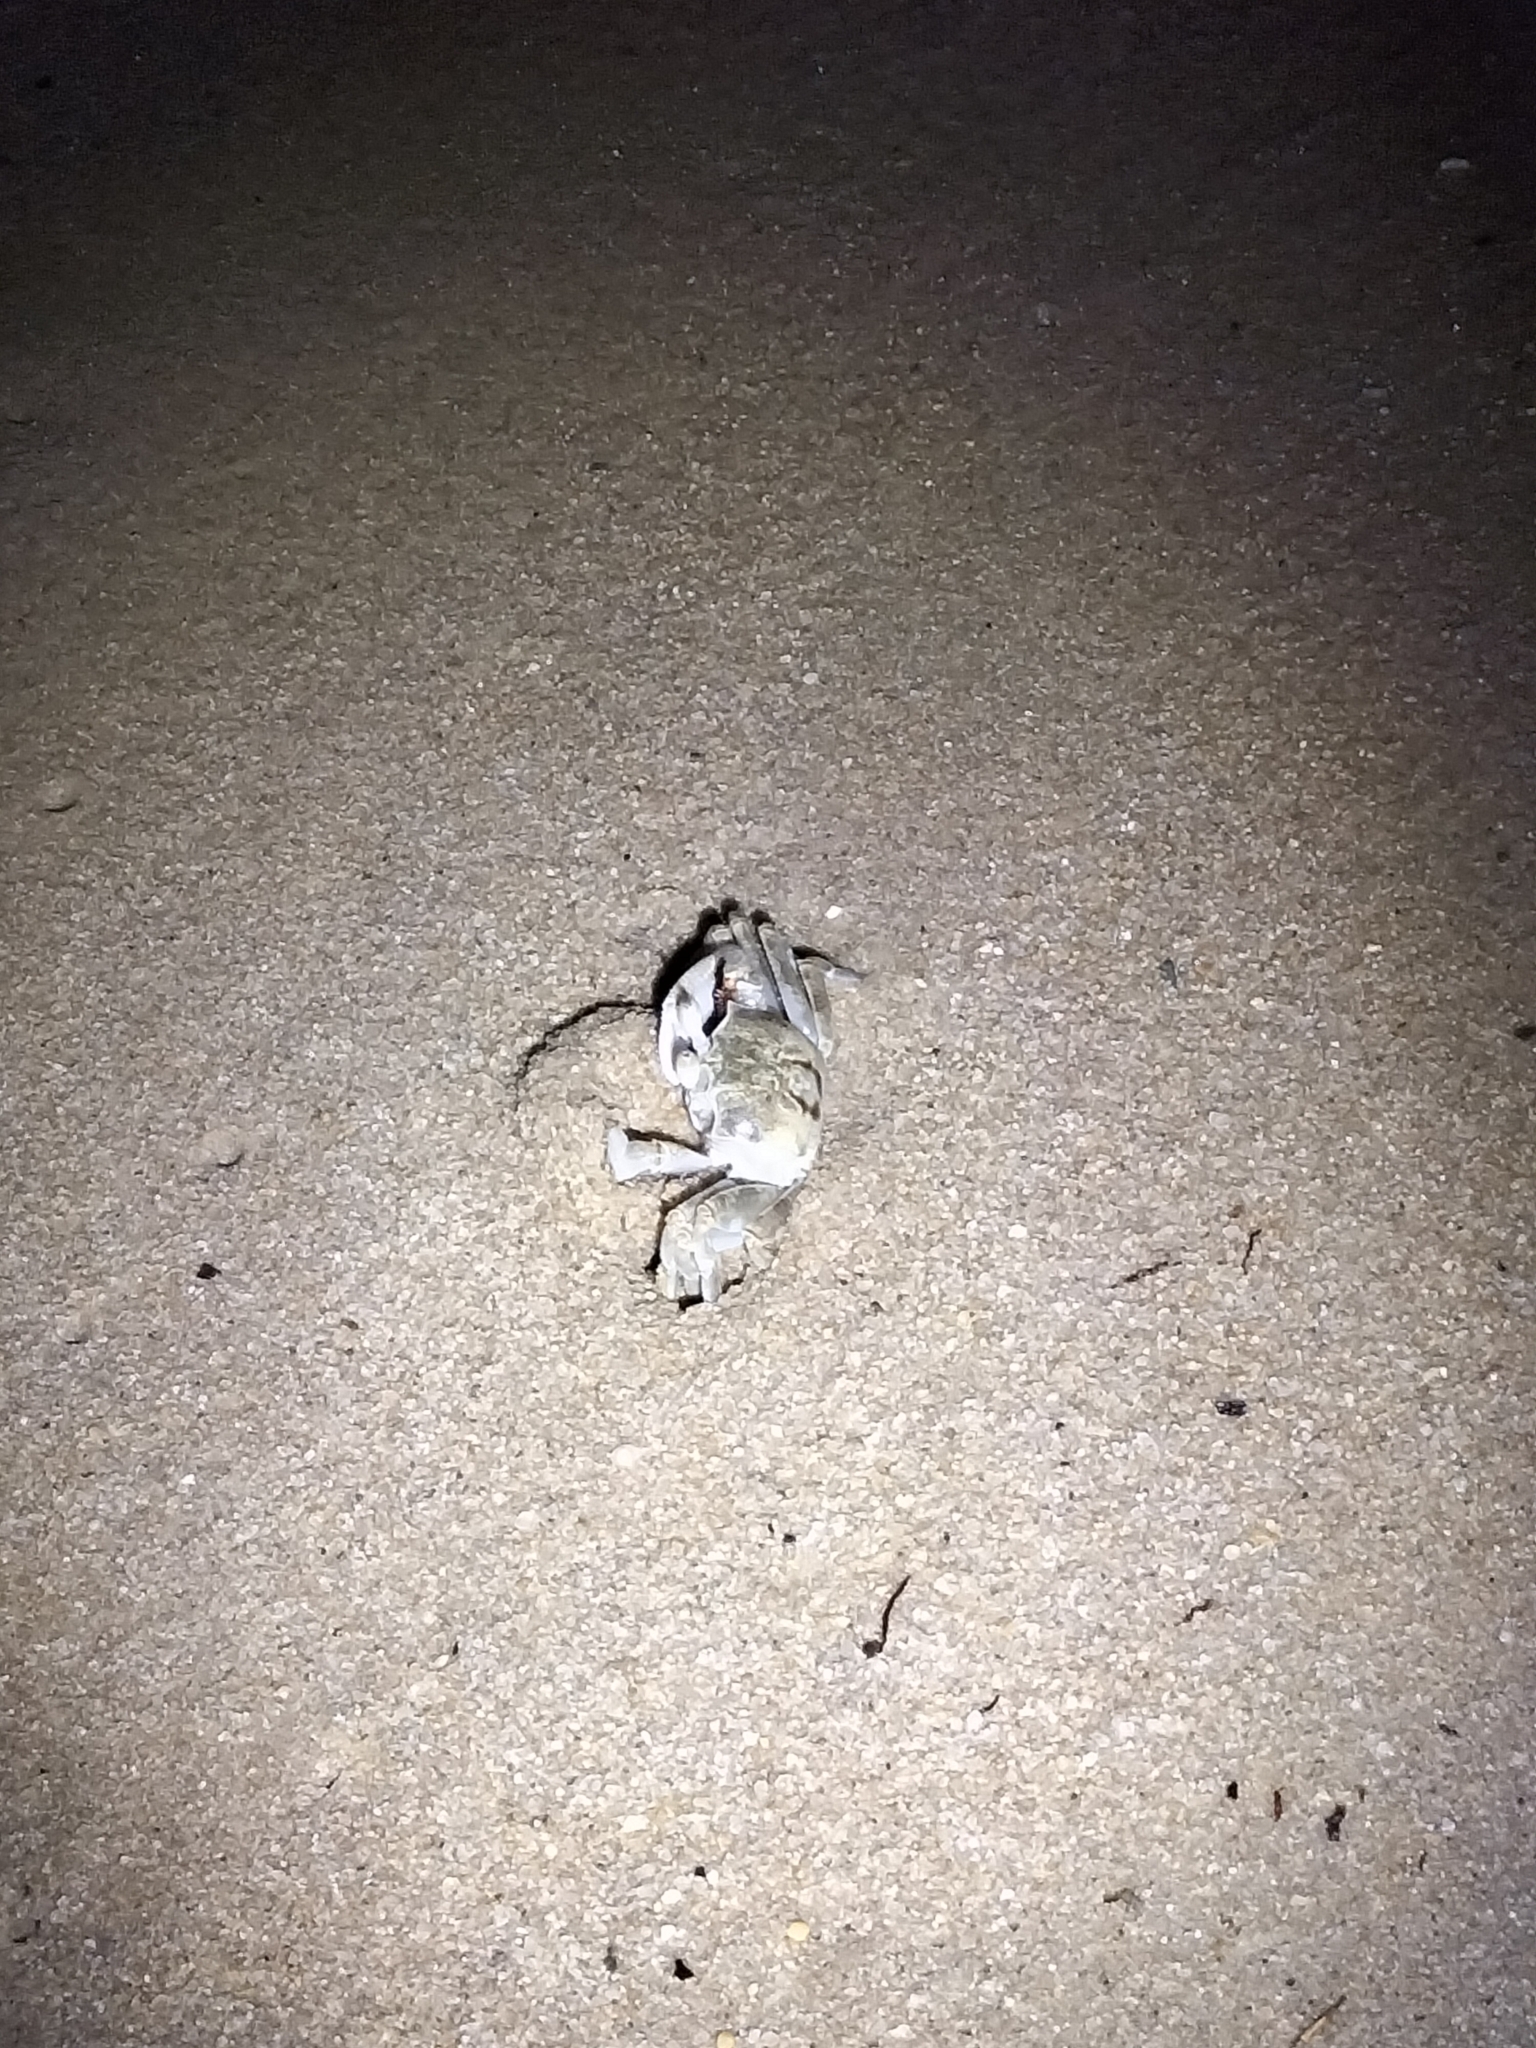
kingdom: Animalia
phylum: Arthropoda
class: Malacostraca
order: Decapoda
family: Ocypodidae
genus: Ocypode
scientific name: Ocypode ceratophthalmus
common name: Indo-pacific ghost crab
